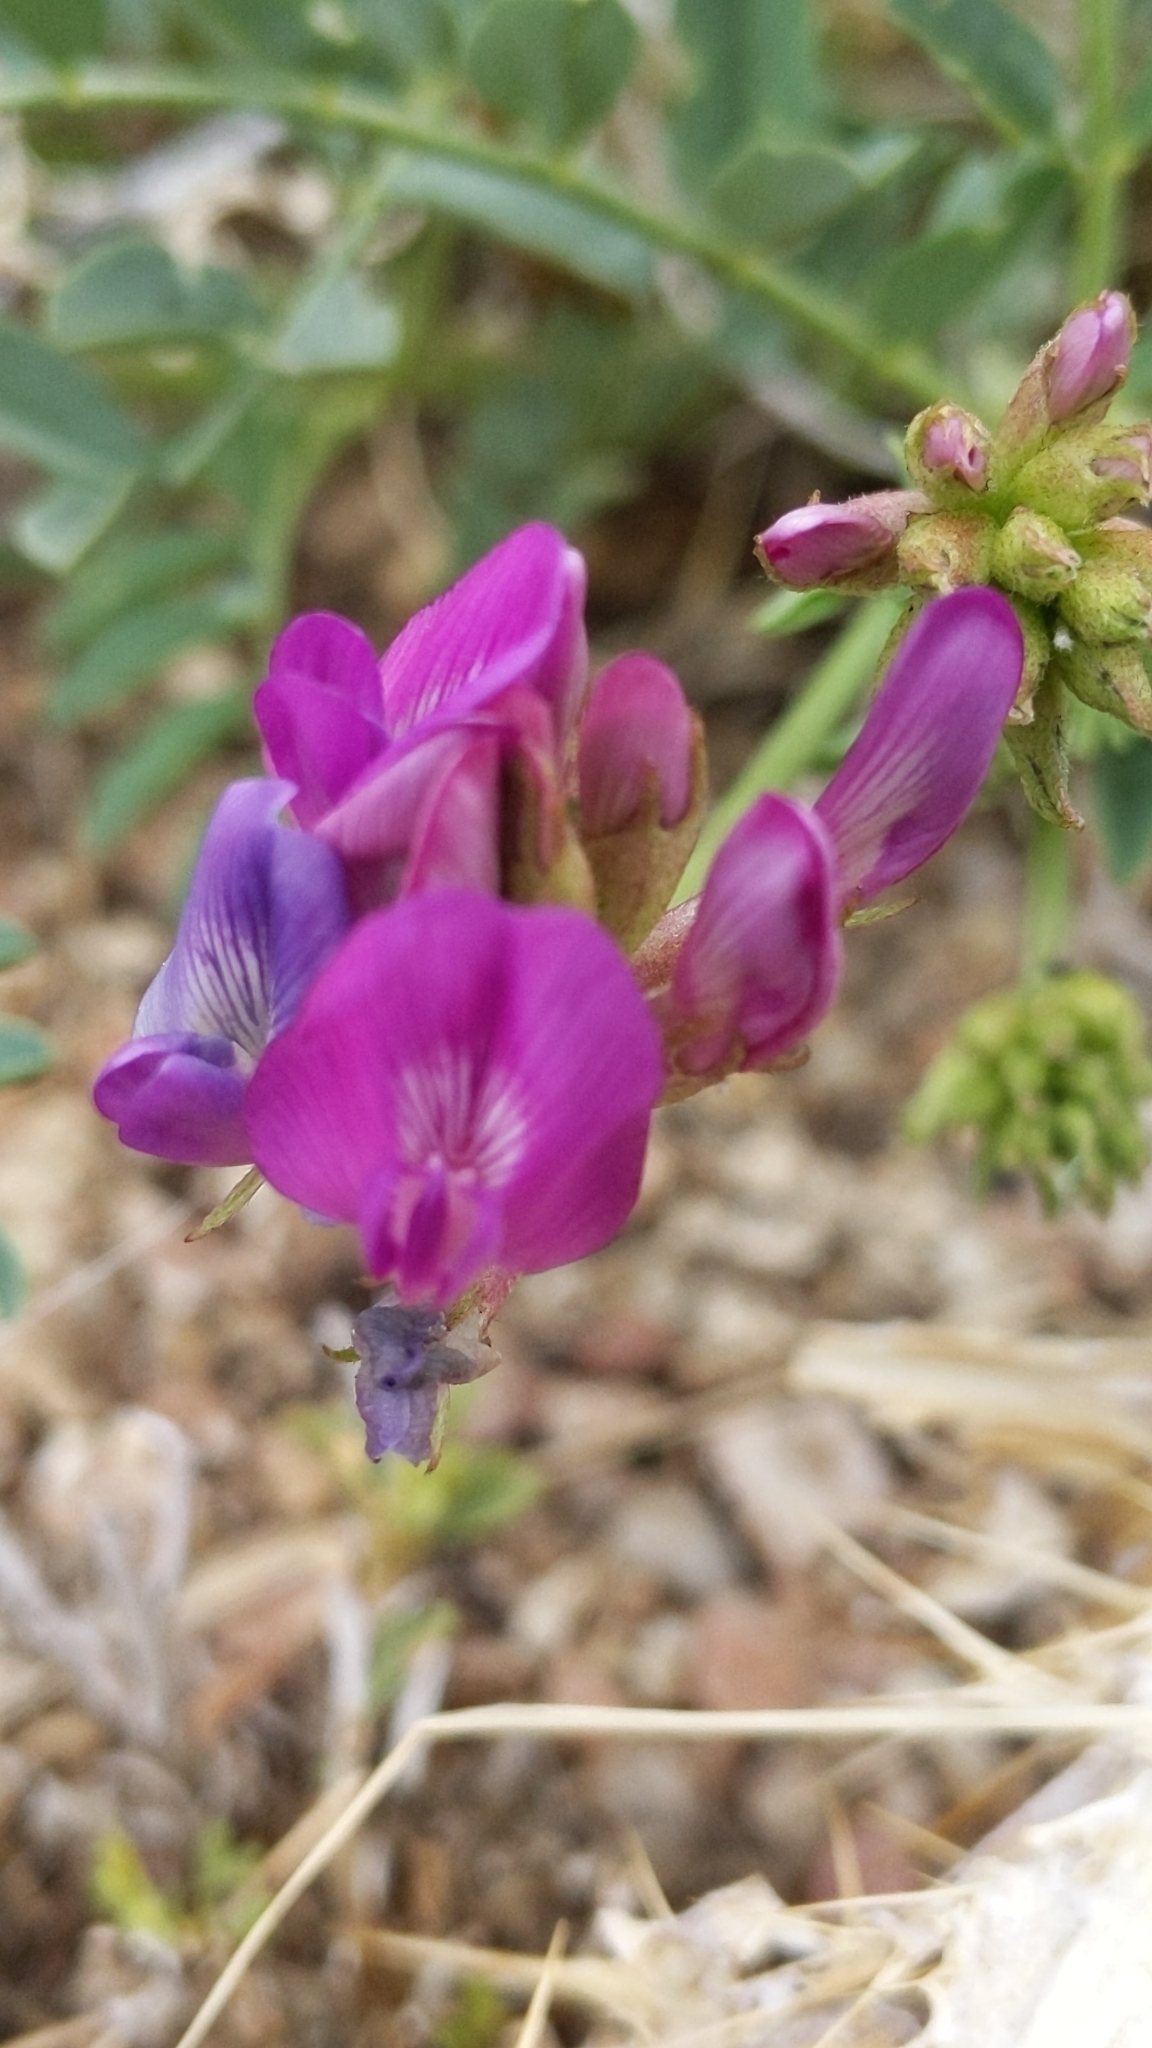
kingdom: Plantae
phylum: Tracheophyta
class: Magnoliopsida
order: Fabales
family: Fabaceae
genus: Astragalus
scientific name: Astragalus lentiginosus
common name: Freckled milkvetch
